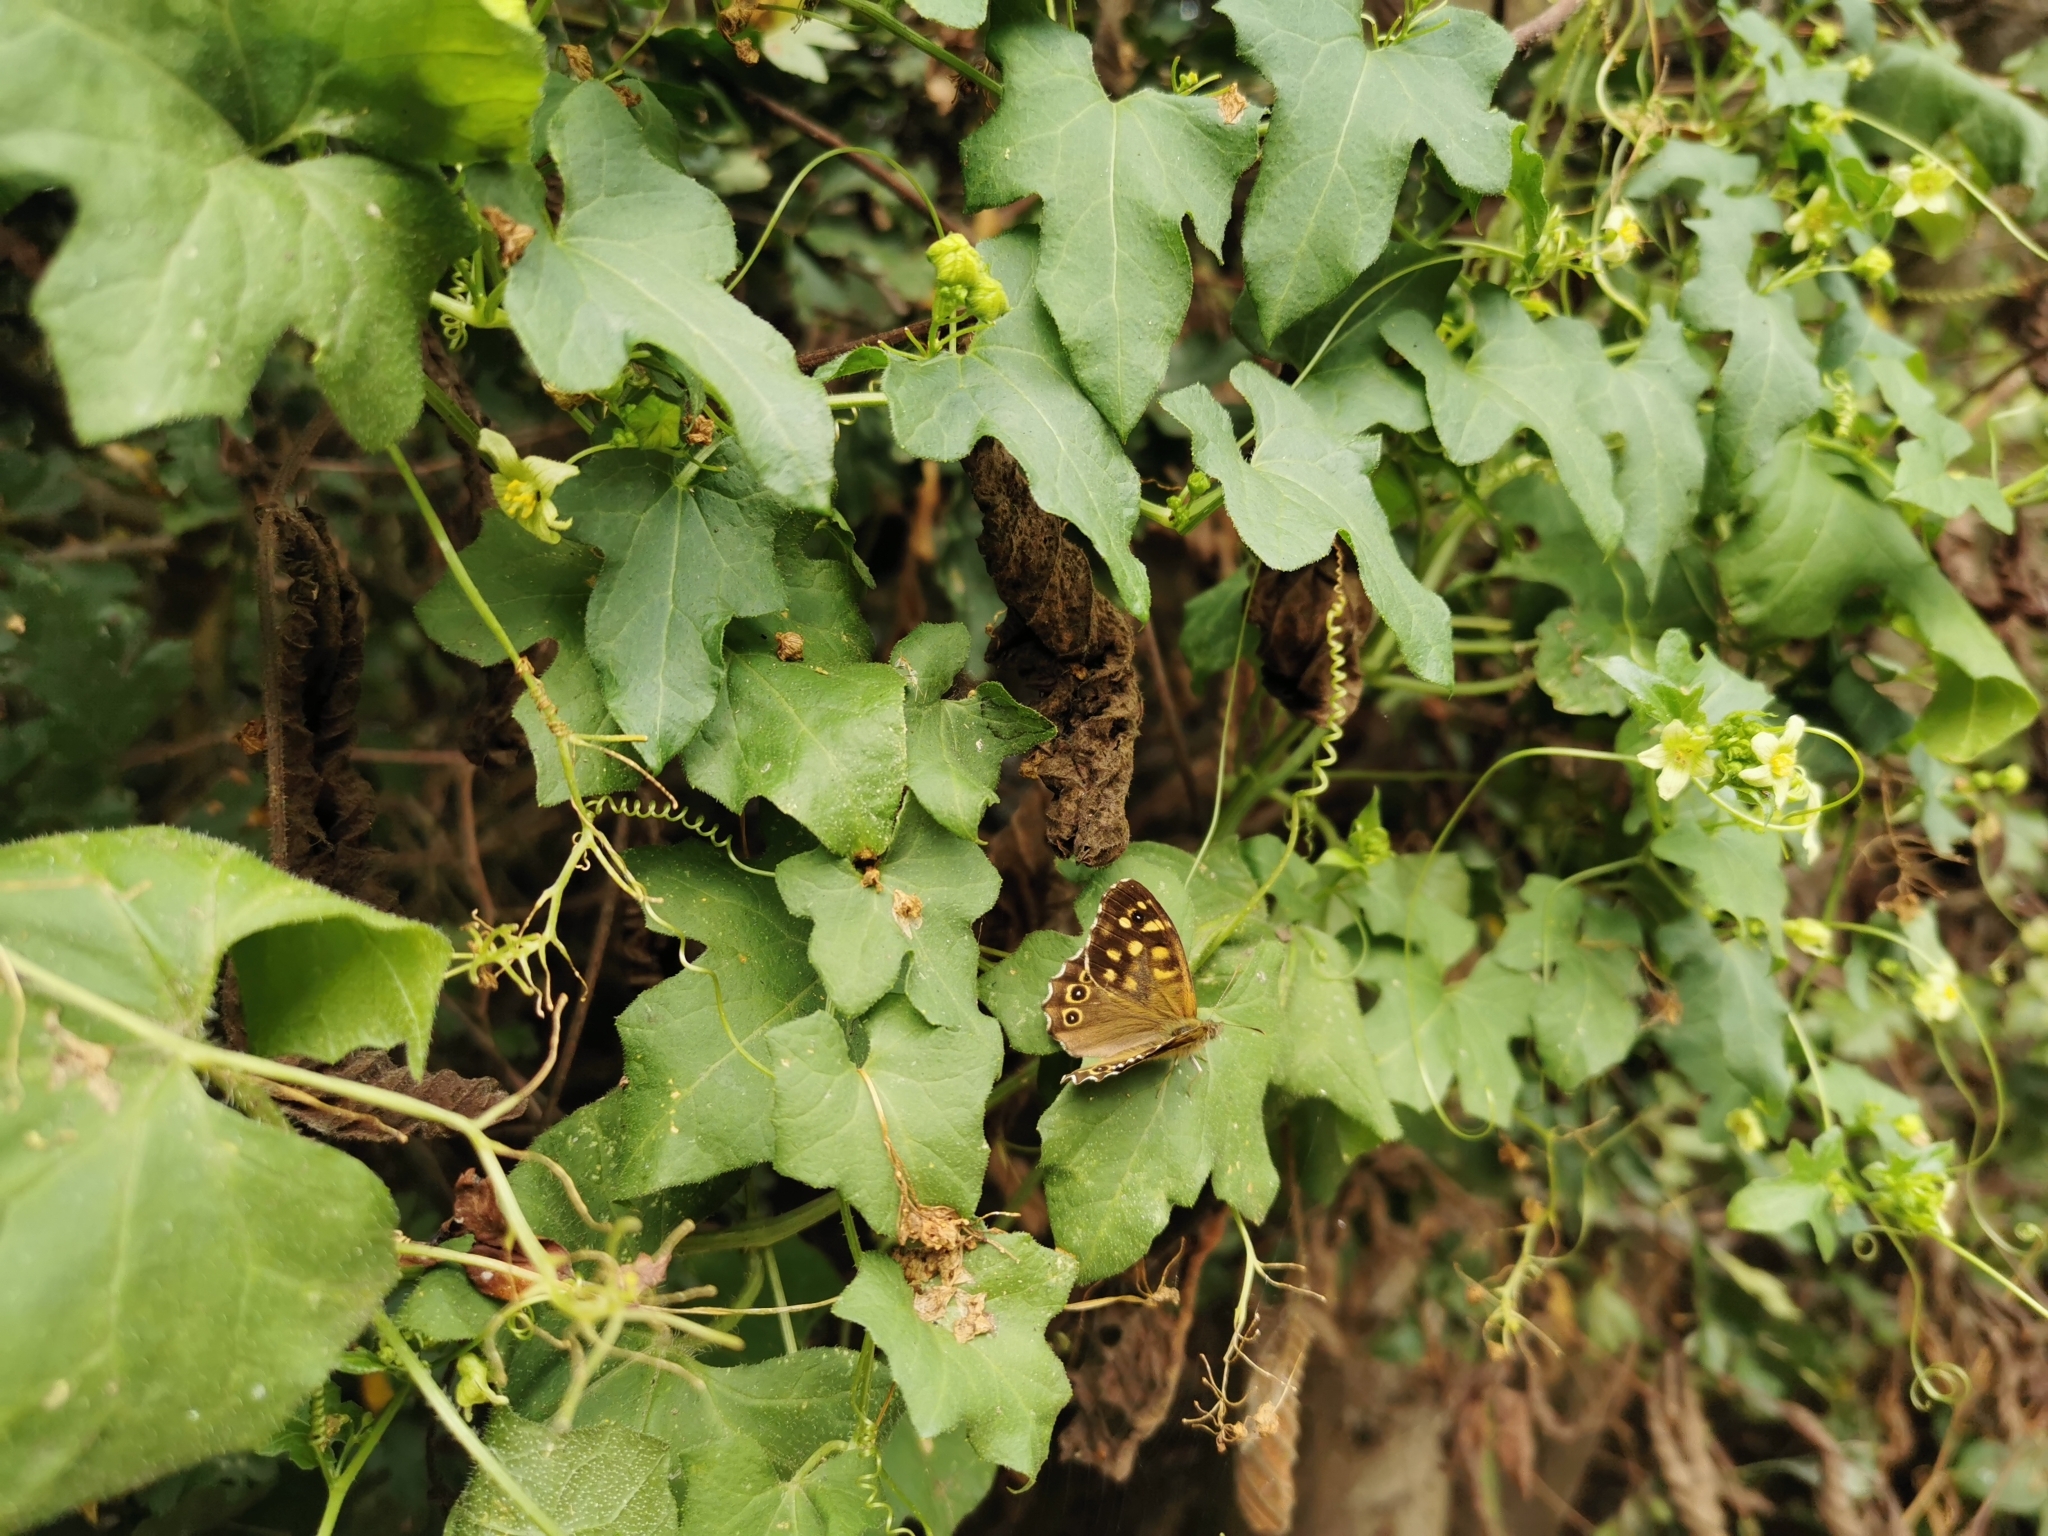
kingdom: Plantae
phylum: Tracheophyta
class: Magnoliopsida
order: Cucurbitales
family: Cucurbitaceae
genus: Bryonia
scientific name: Bryonia cretica
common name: Cretan bryony
